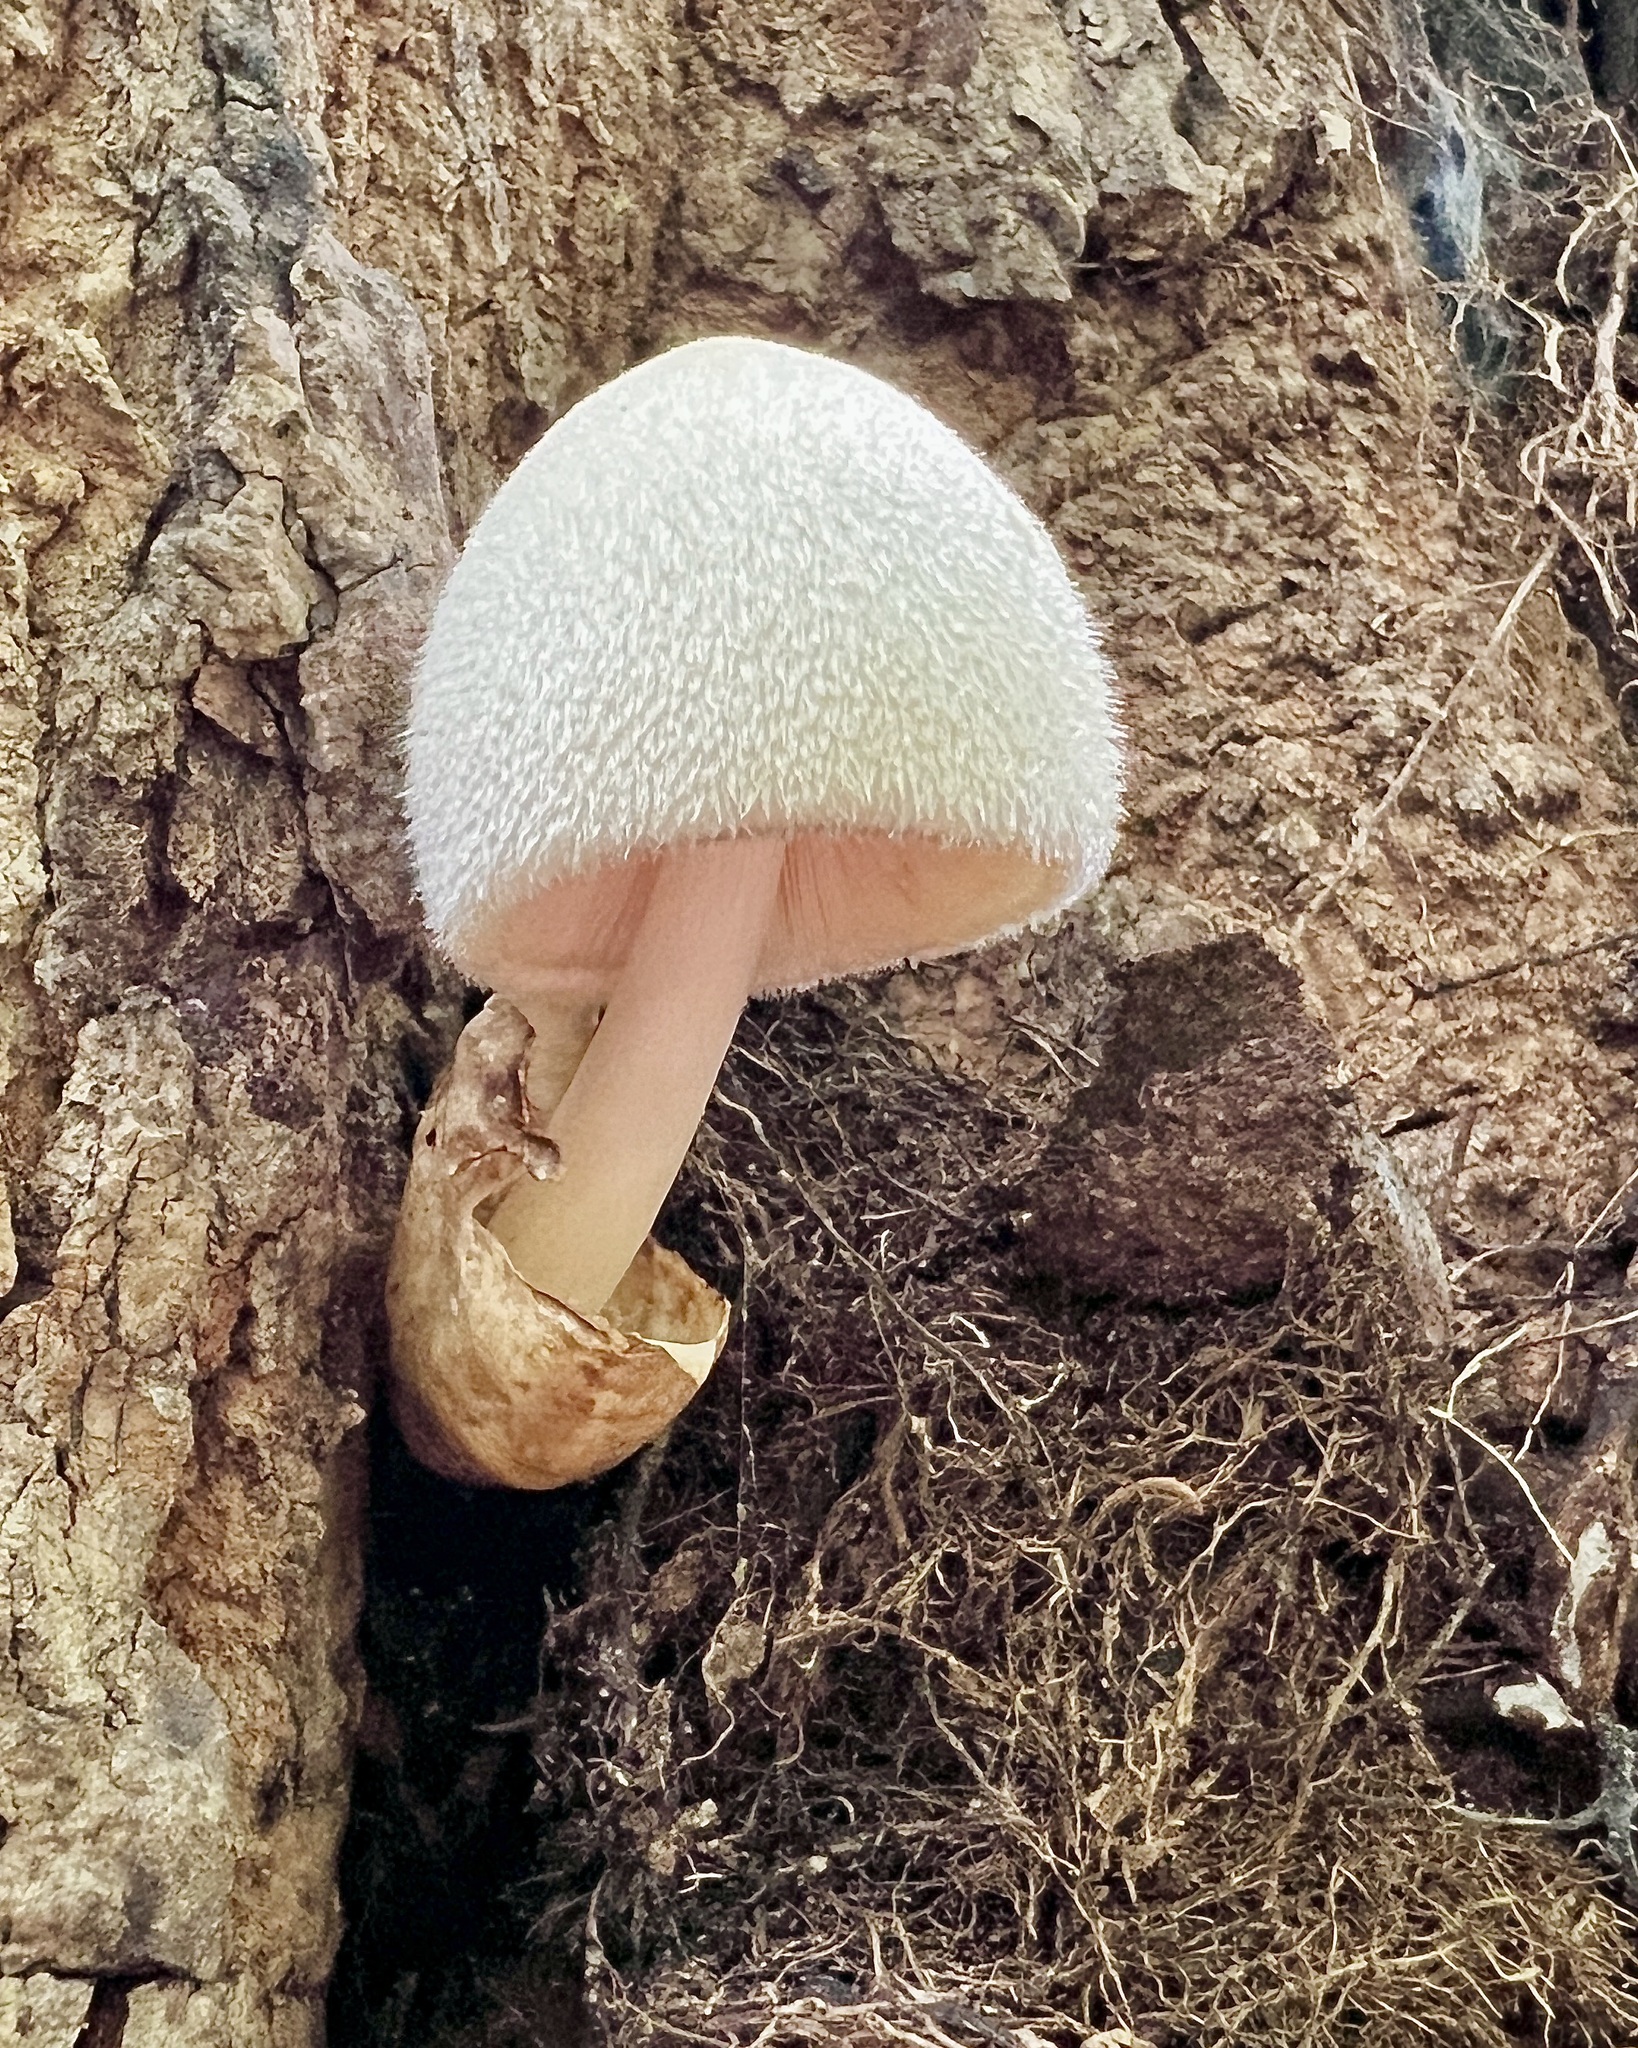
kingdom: Fungi
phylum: Basidiomycota
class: Agaricomycetes
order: Agaricales
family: Pluteaceae
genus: Volvariella
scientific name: Volvariella bombycina
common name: Silky rosegill
